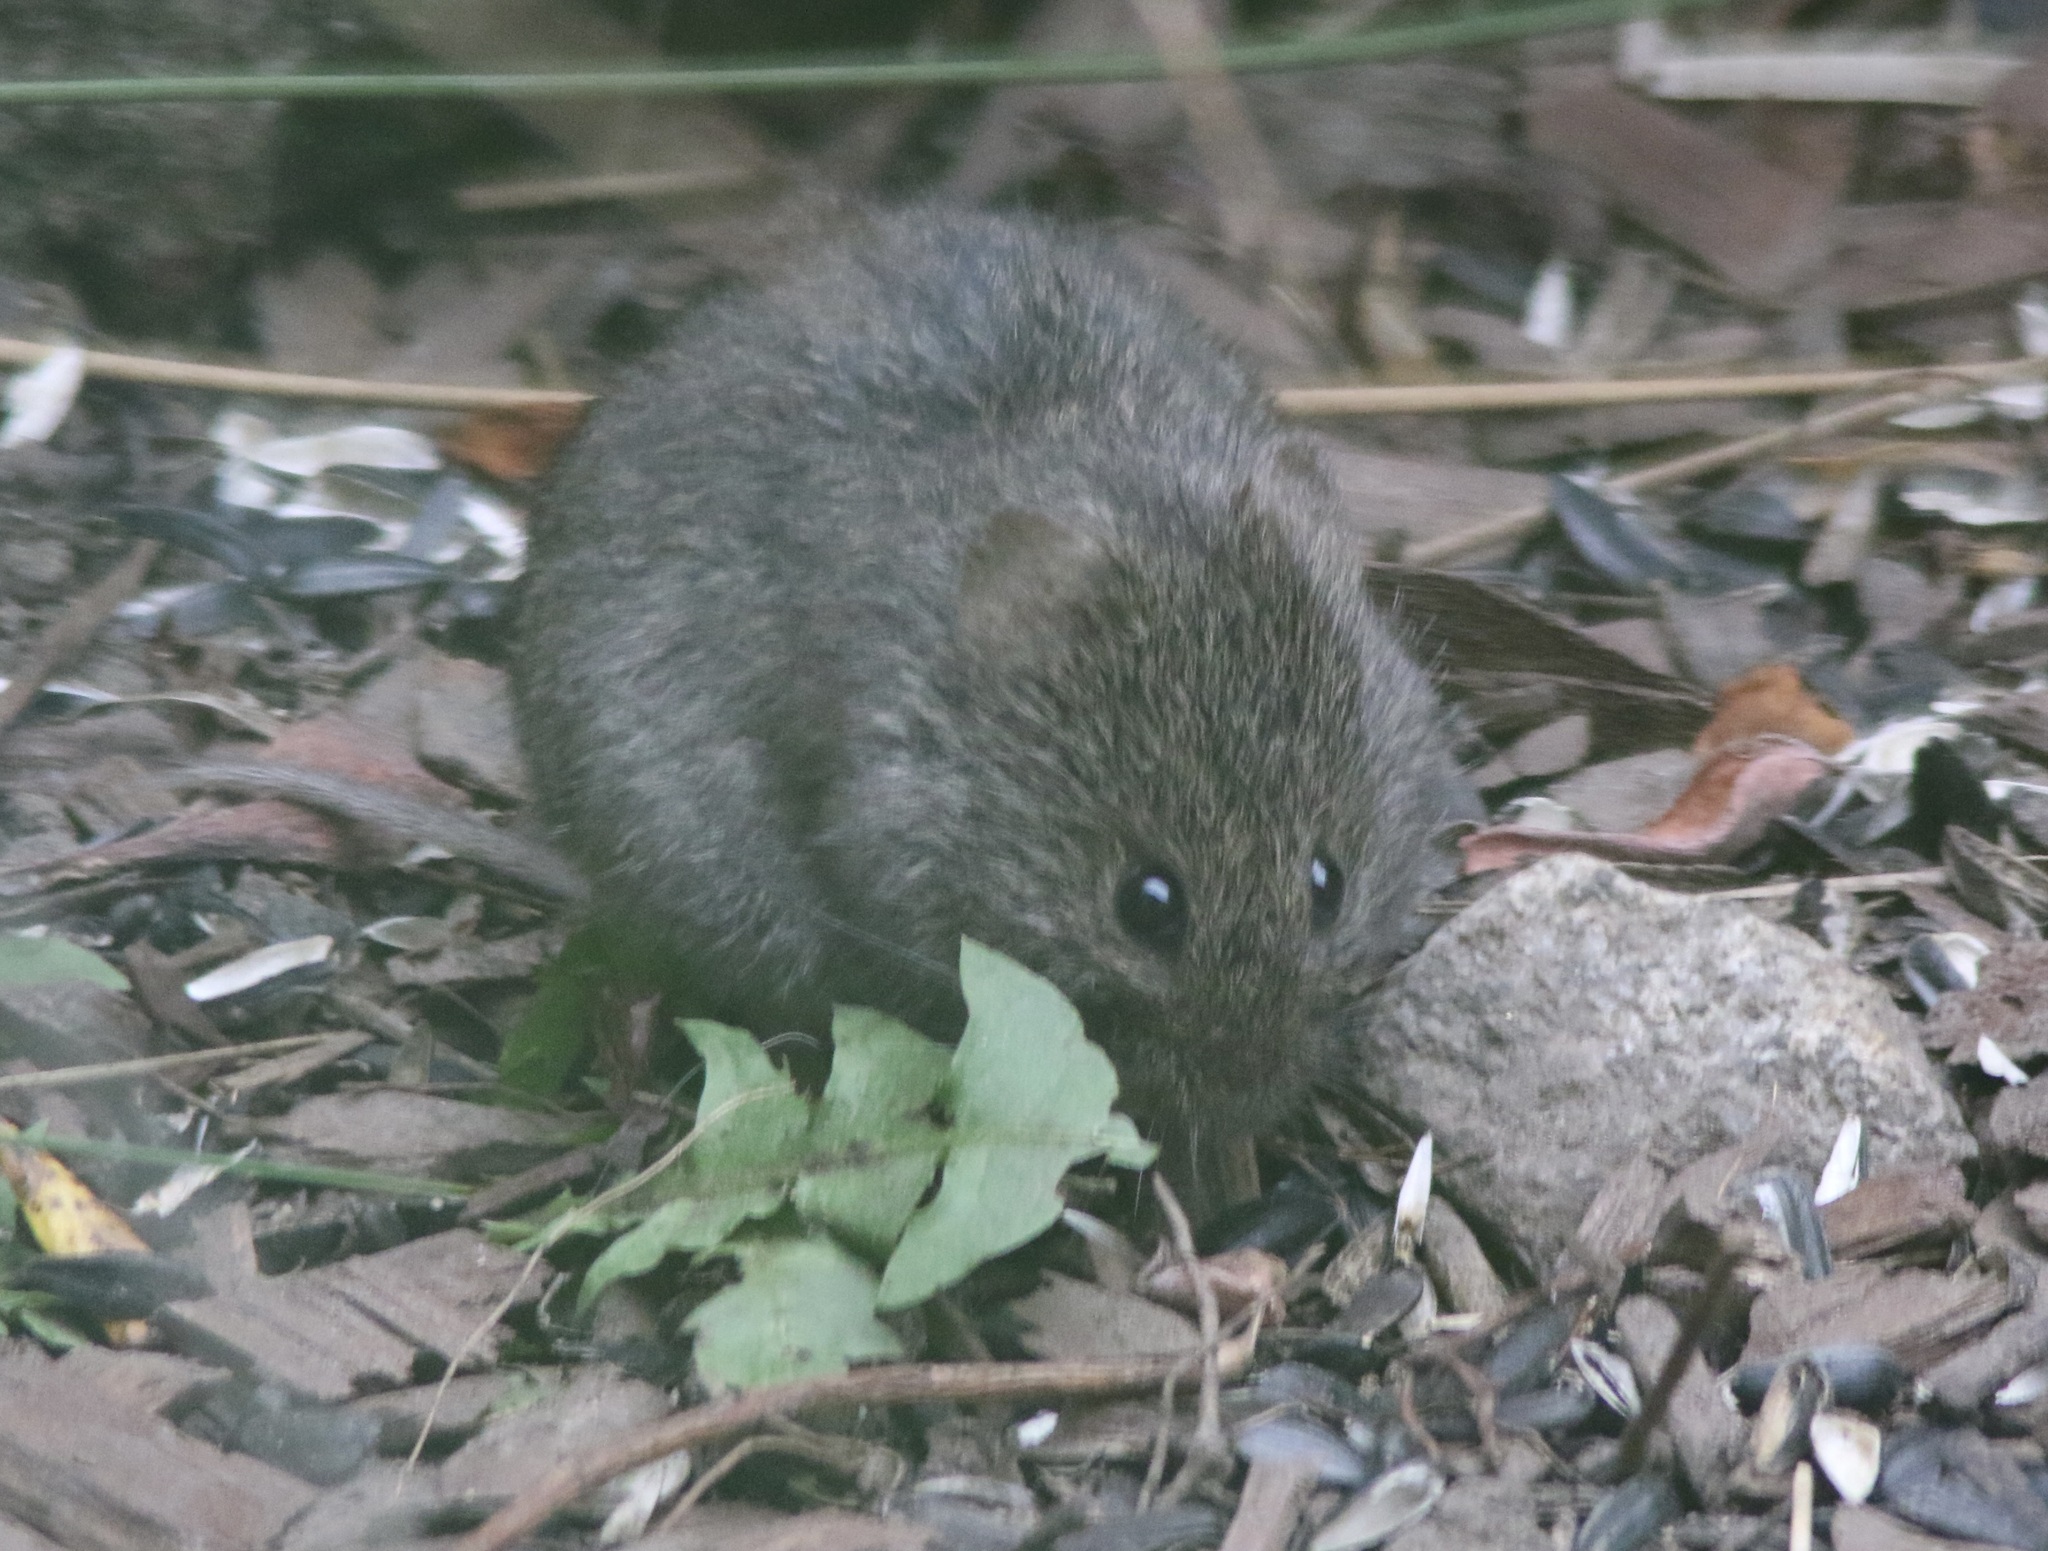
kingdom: Animalia
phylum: Chordata
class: Mammalia
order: Rodentia
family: Cricetidae
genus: Microtus
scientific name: Microtus californicus
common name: California vole
